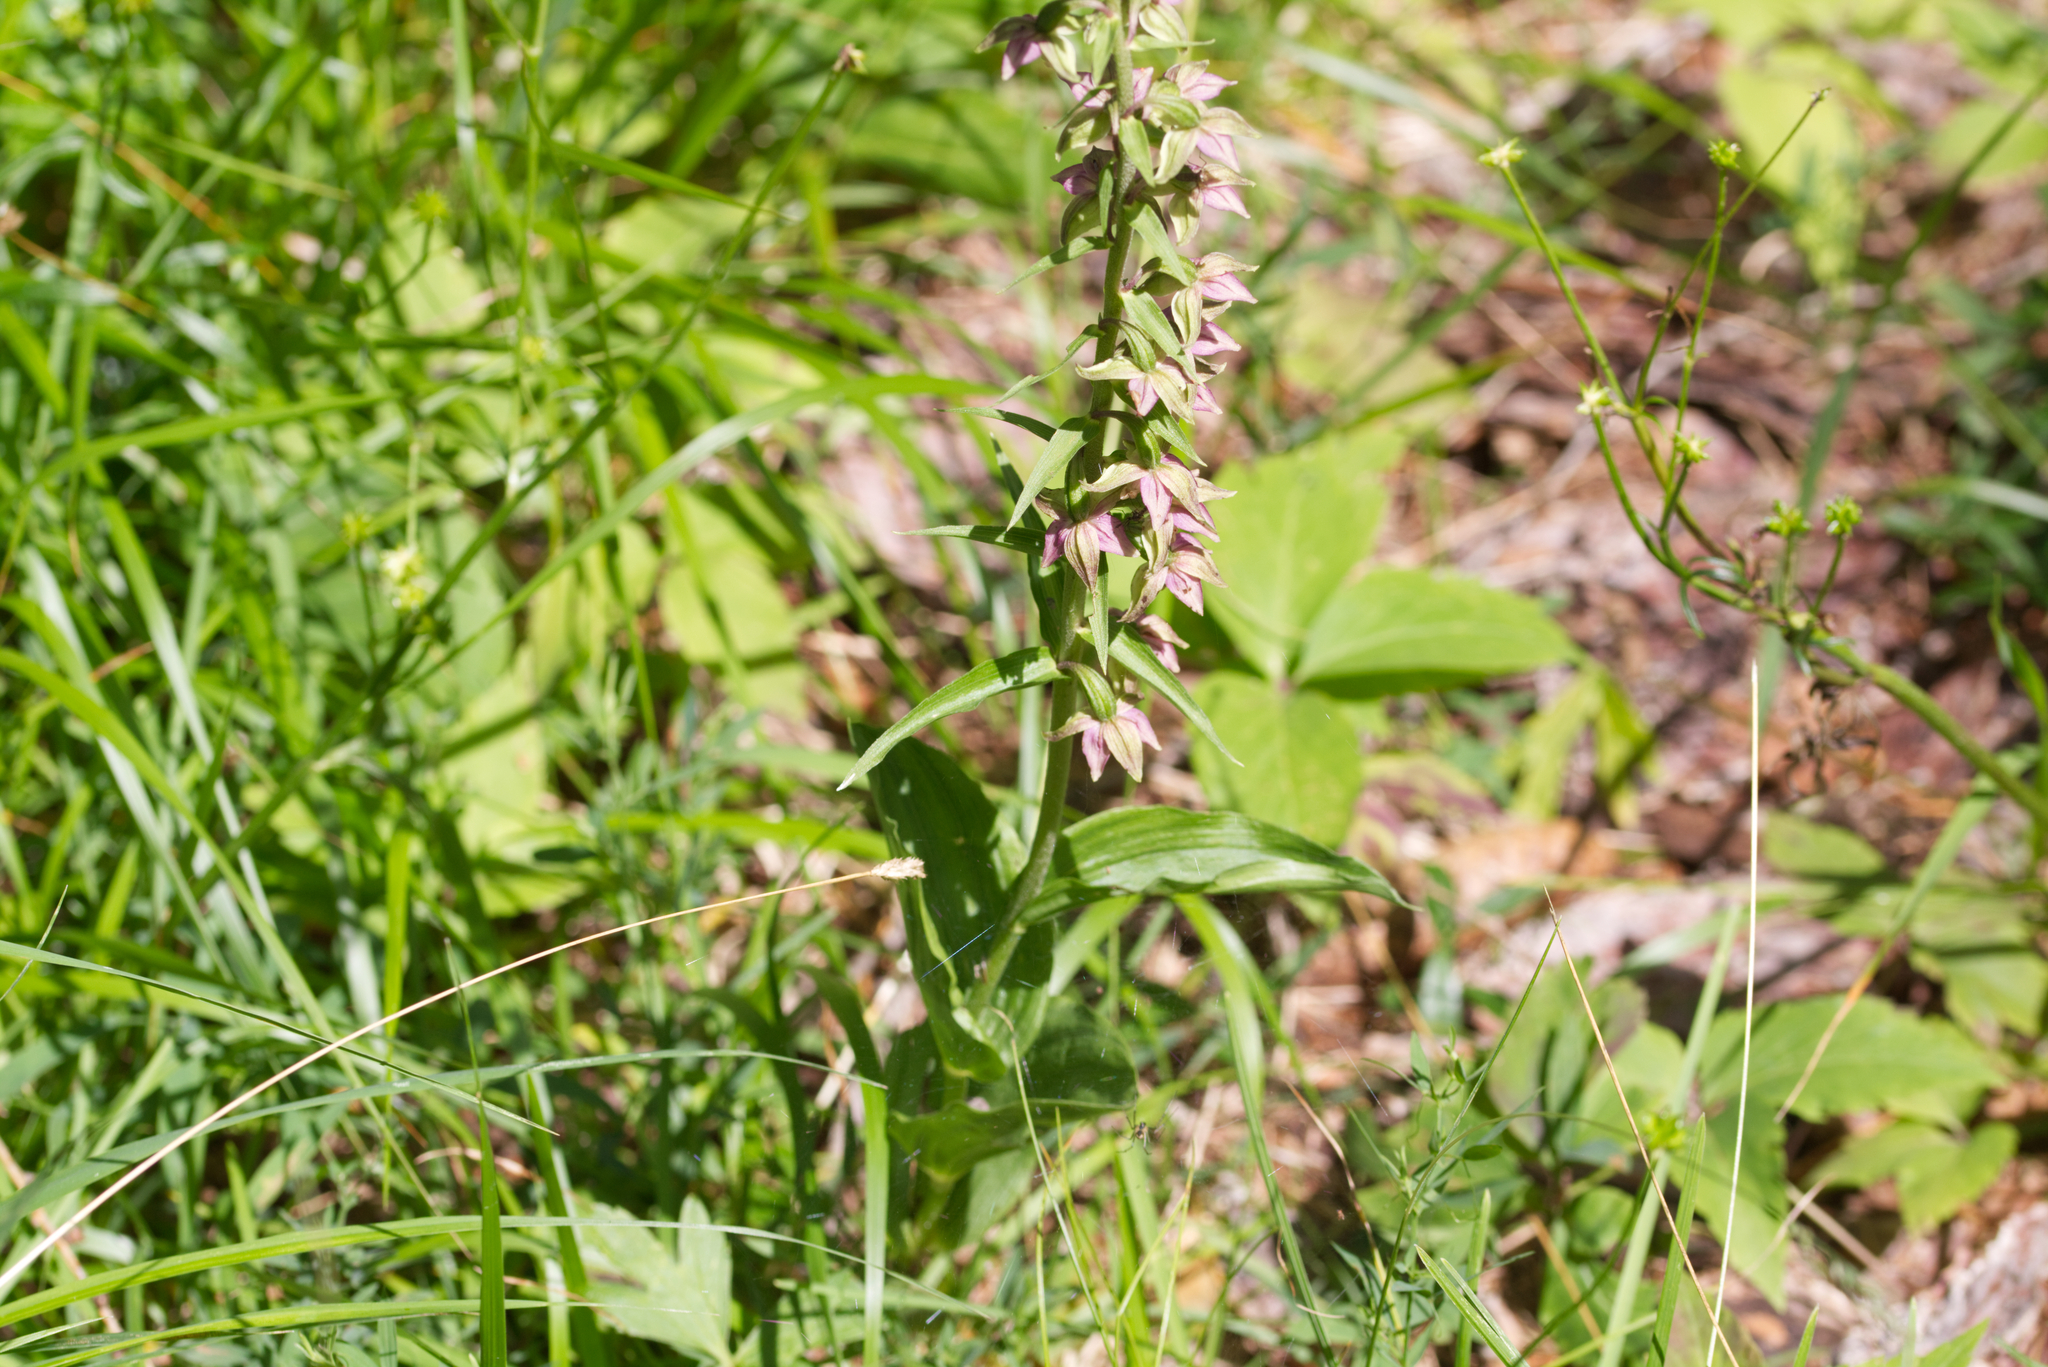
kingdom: Plantae
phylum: Tracheophyta
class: Liliopsida
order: Asparagales
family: Orchidaceae
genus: Epipactis
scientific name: Epipactis helleborine
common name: Broad-leaved helleborine
